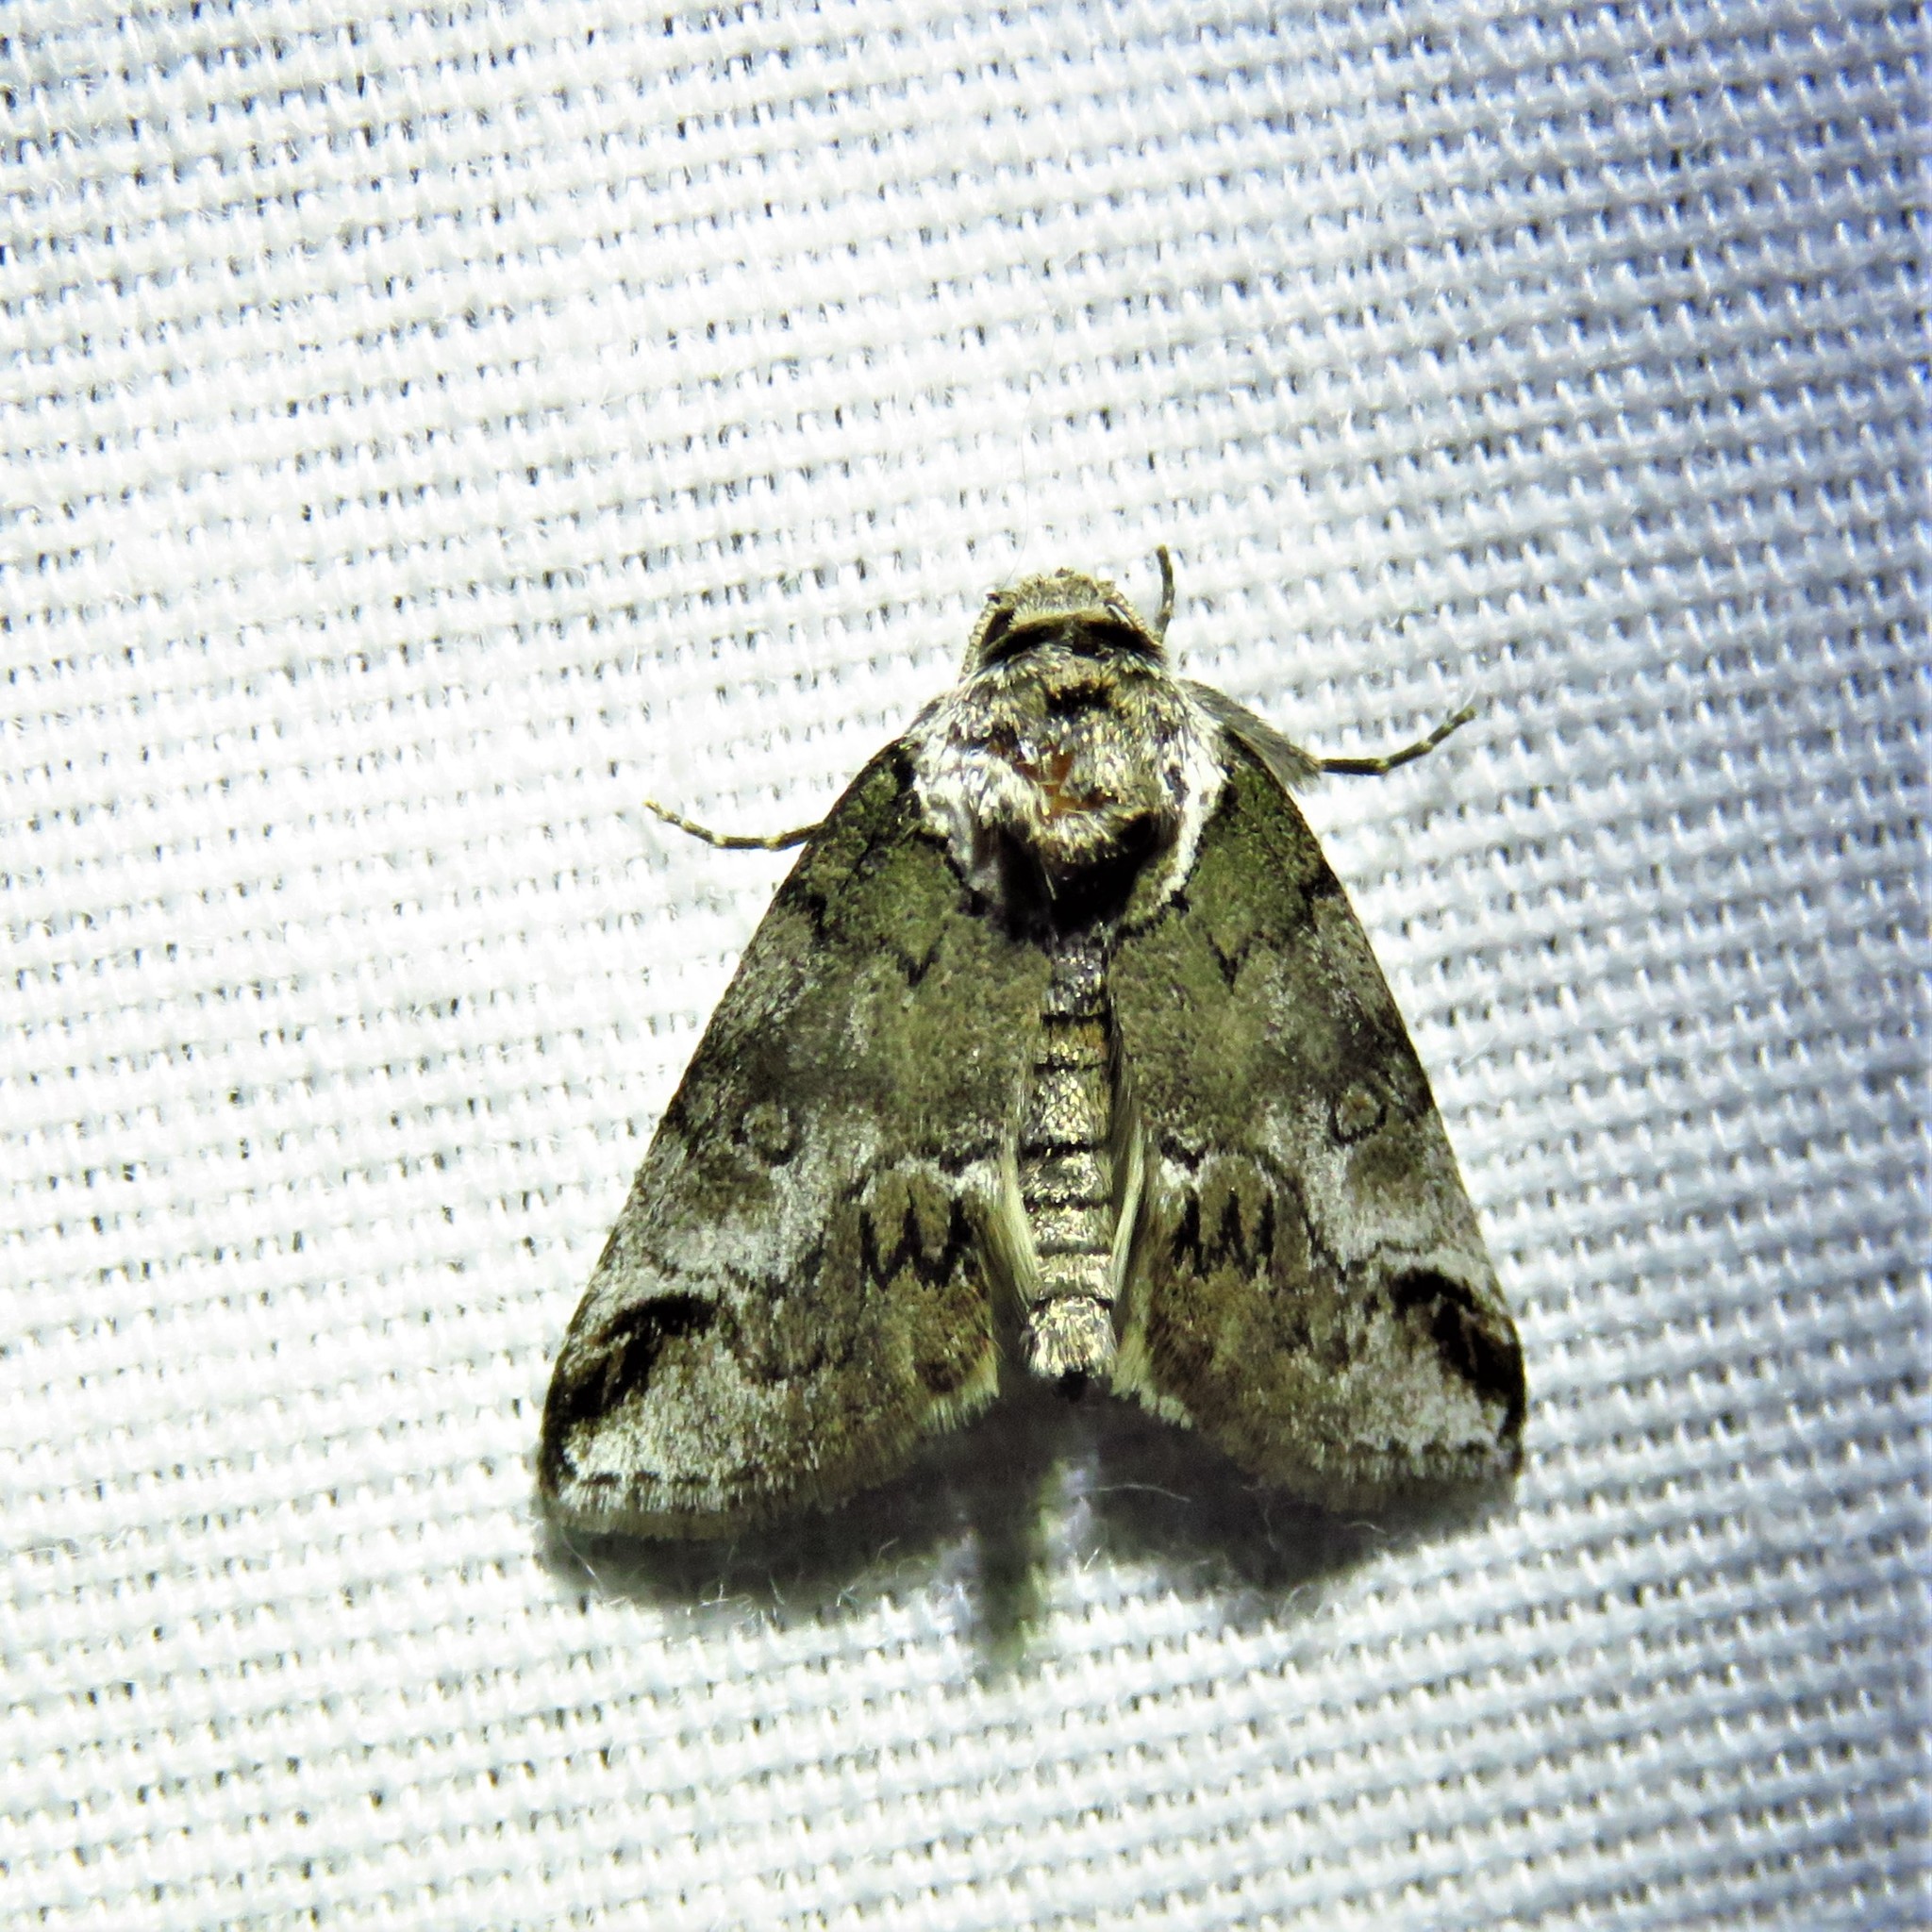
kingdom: Animalia
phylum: Arthropoda
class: Insecta
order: Lepidoptera
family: Nolidae
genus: Baileya
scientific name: Baileya australis
